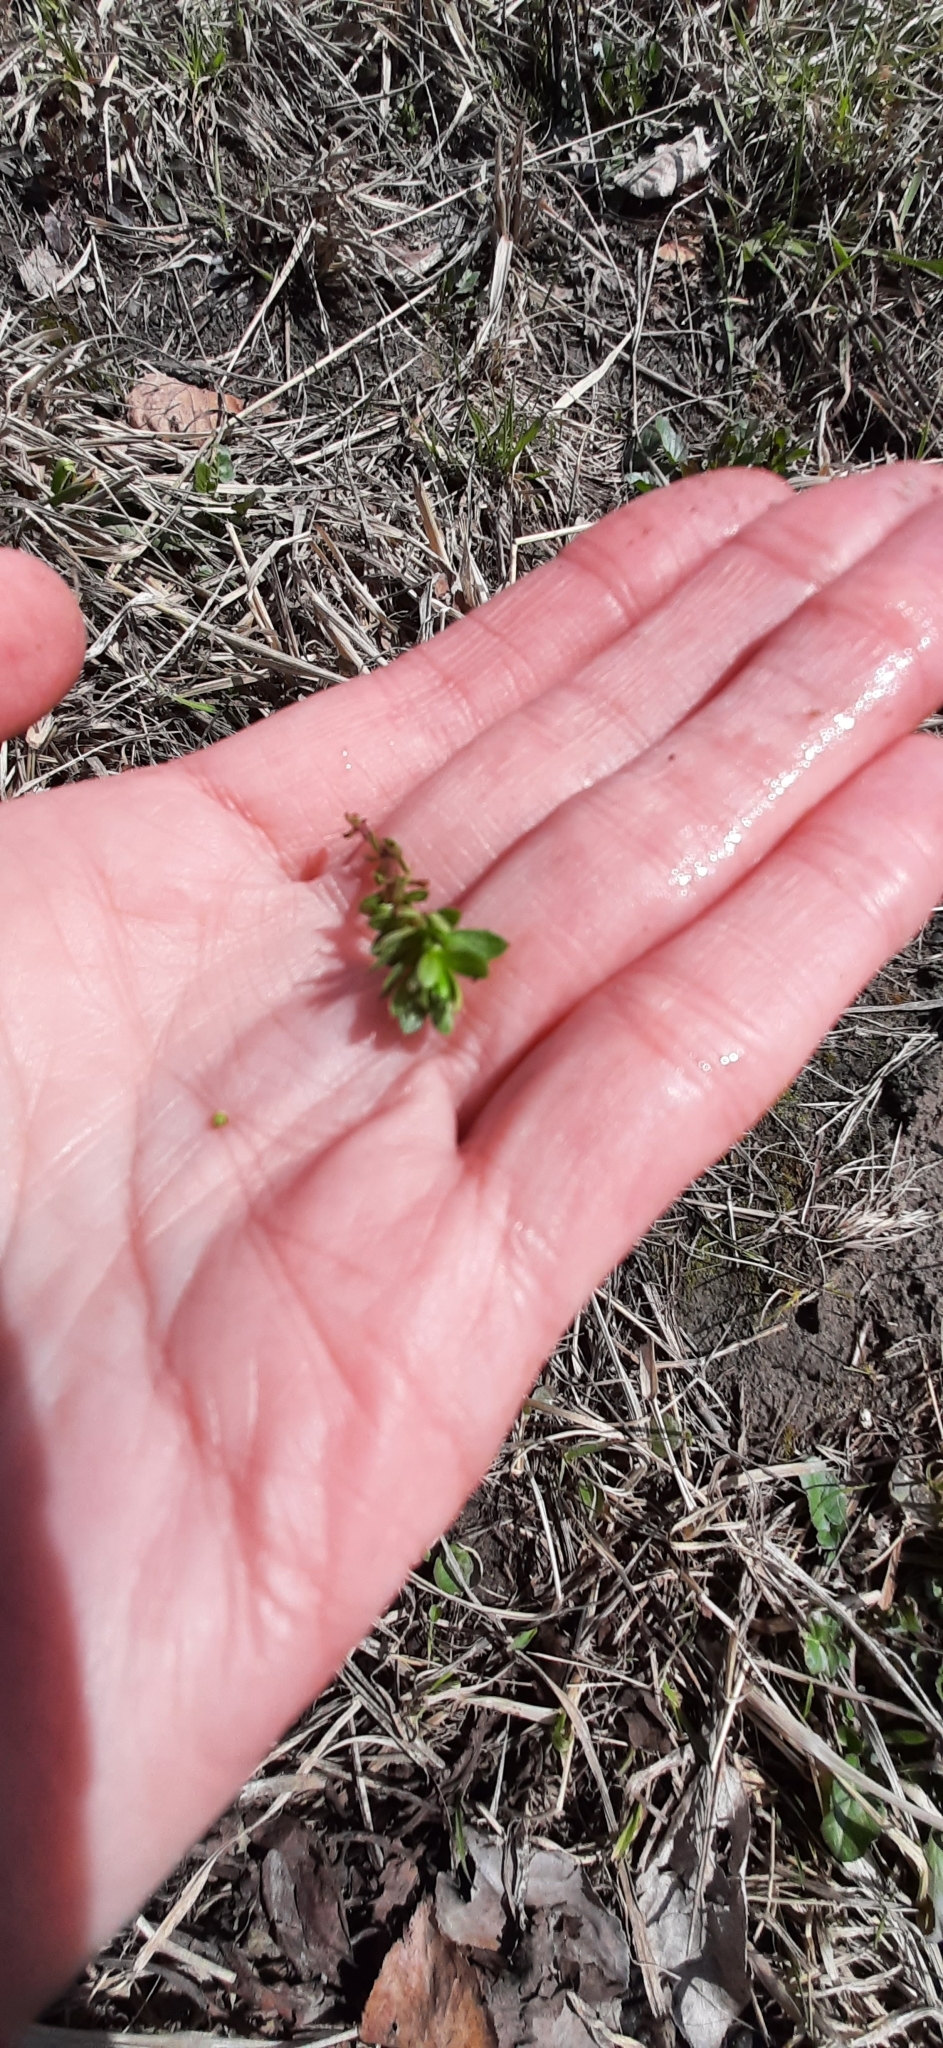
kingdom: Plantae
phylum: Tracheophyta
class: Magnoliopsida
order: Gentianales
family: Rubiaceae
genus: Galium
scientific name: Galium mollugo
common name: Hedge bedstraw
